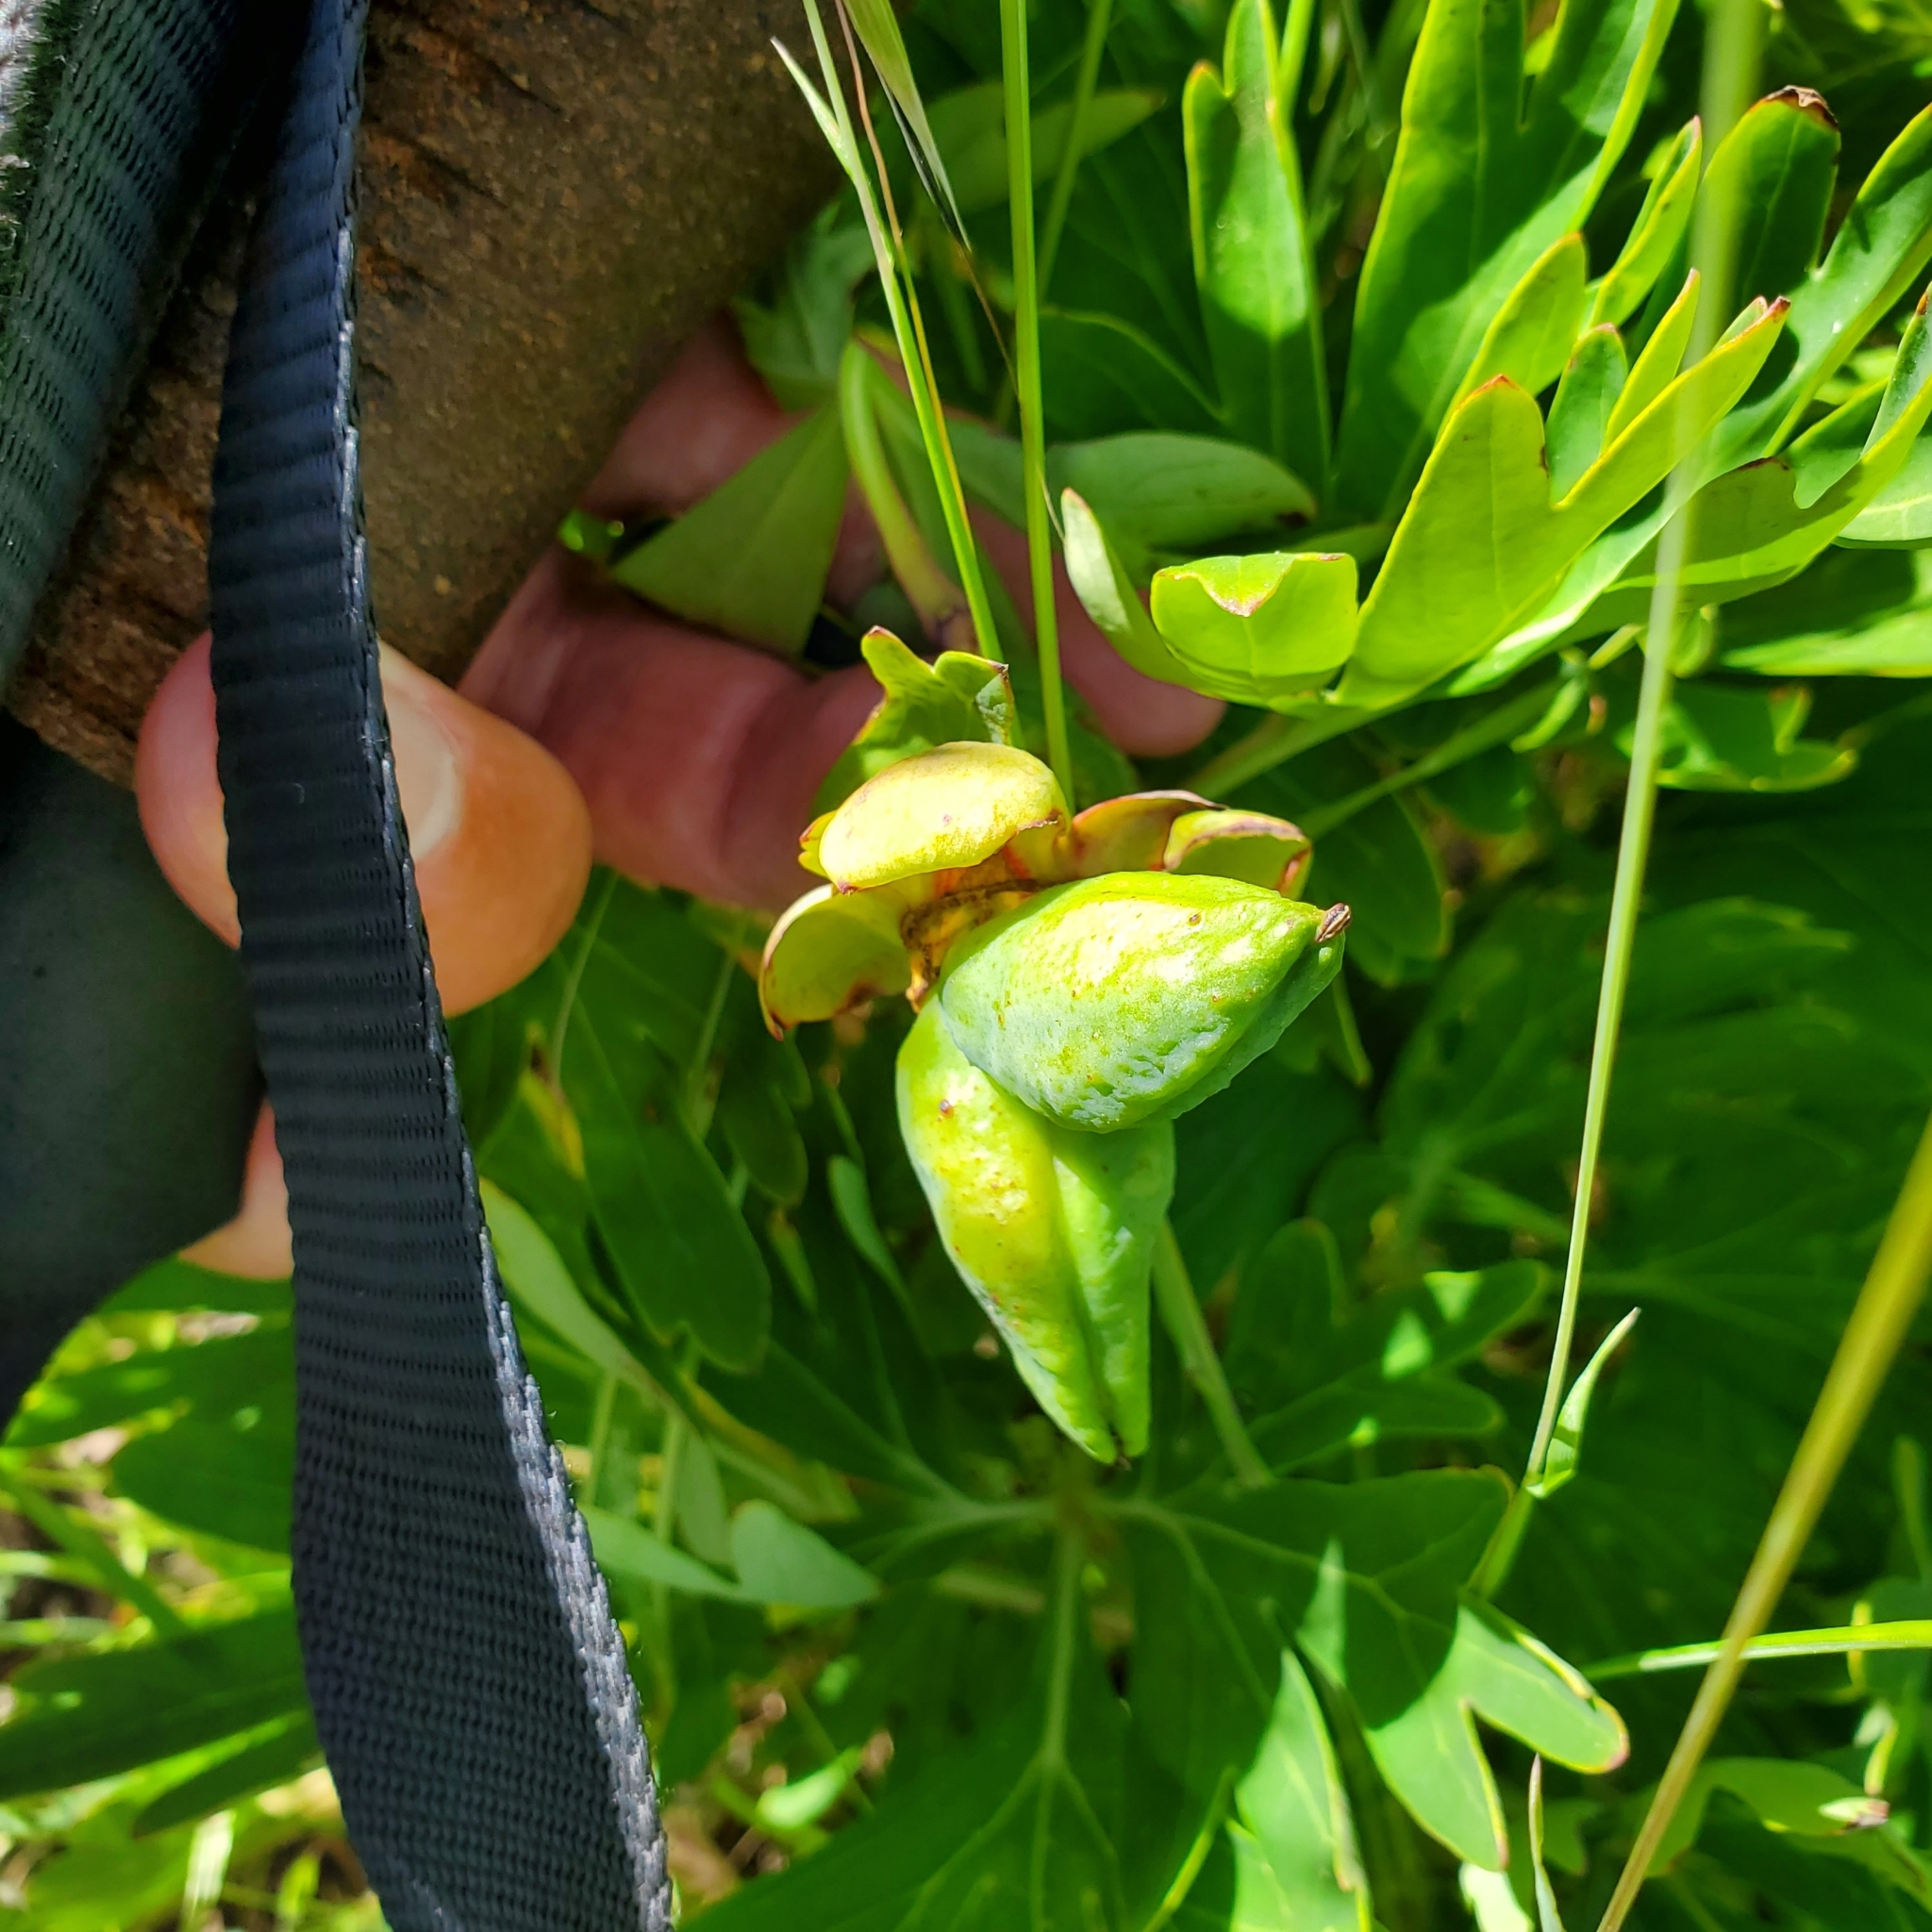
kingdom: Plantae
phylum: Tracheophyta
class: Magnoliopsida
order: Saxifragales
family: Paeoniaceae
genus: Paeonia
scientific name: Paeonia californica
